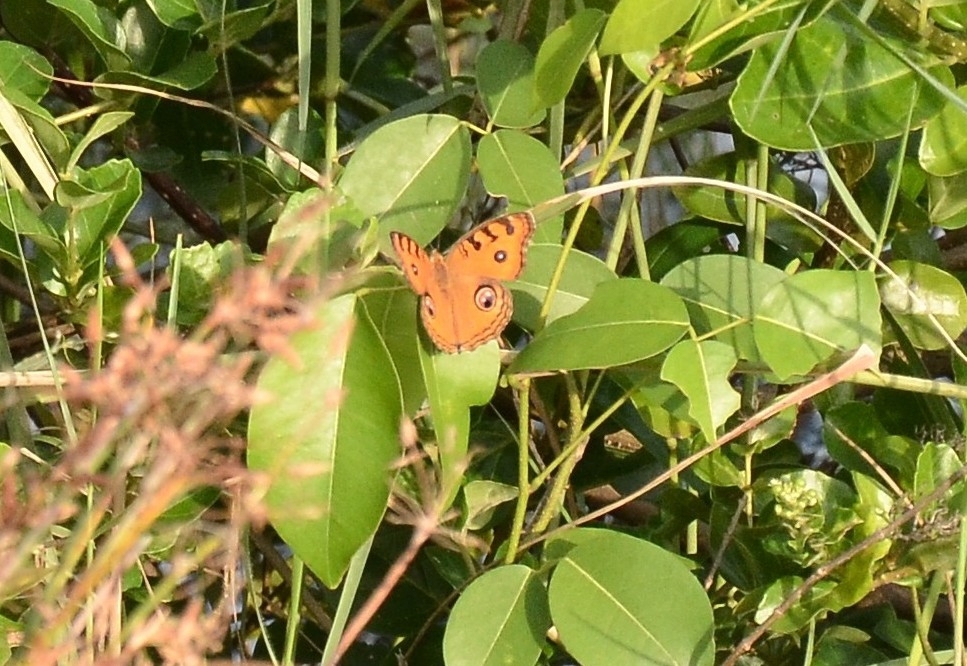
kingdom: Animalia
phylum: Arthropoda
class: Insecta
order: Lepidoptera
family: Nymphalidae
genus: Junonia
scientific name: Junonia almana
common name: Peacock pansy
